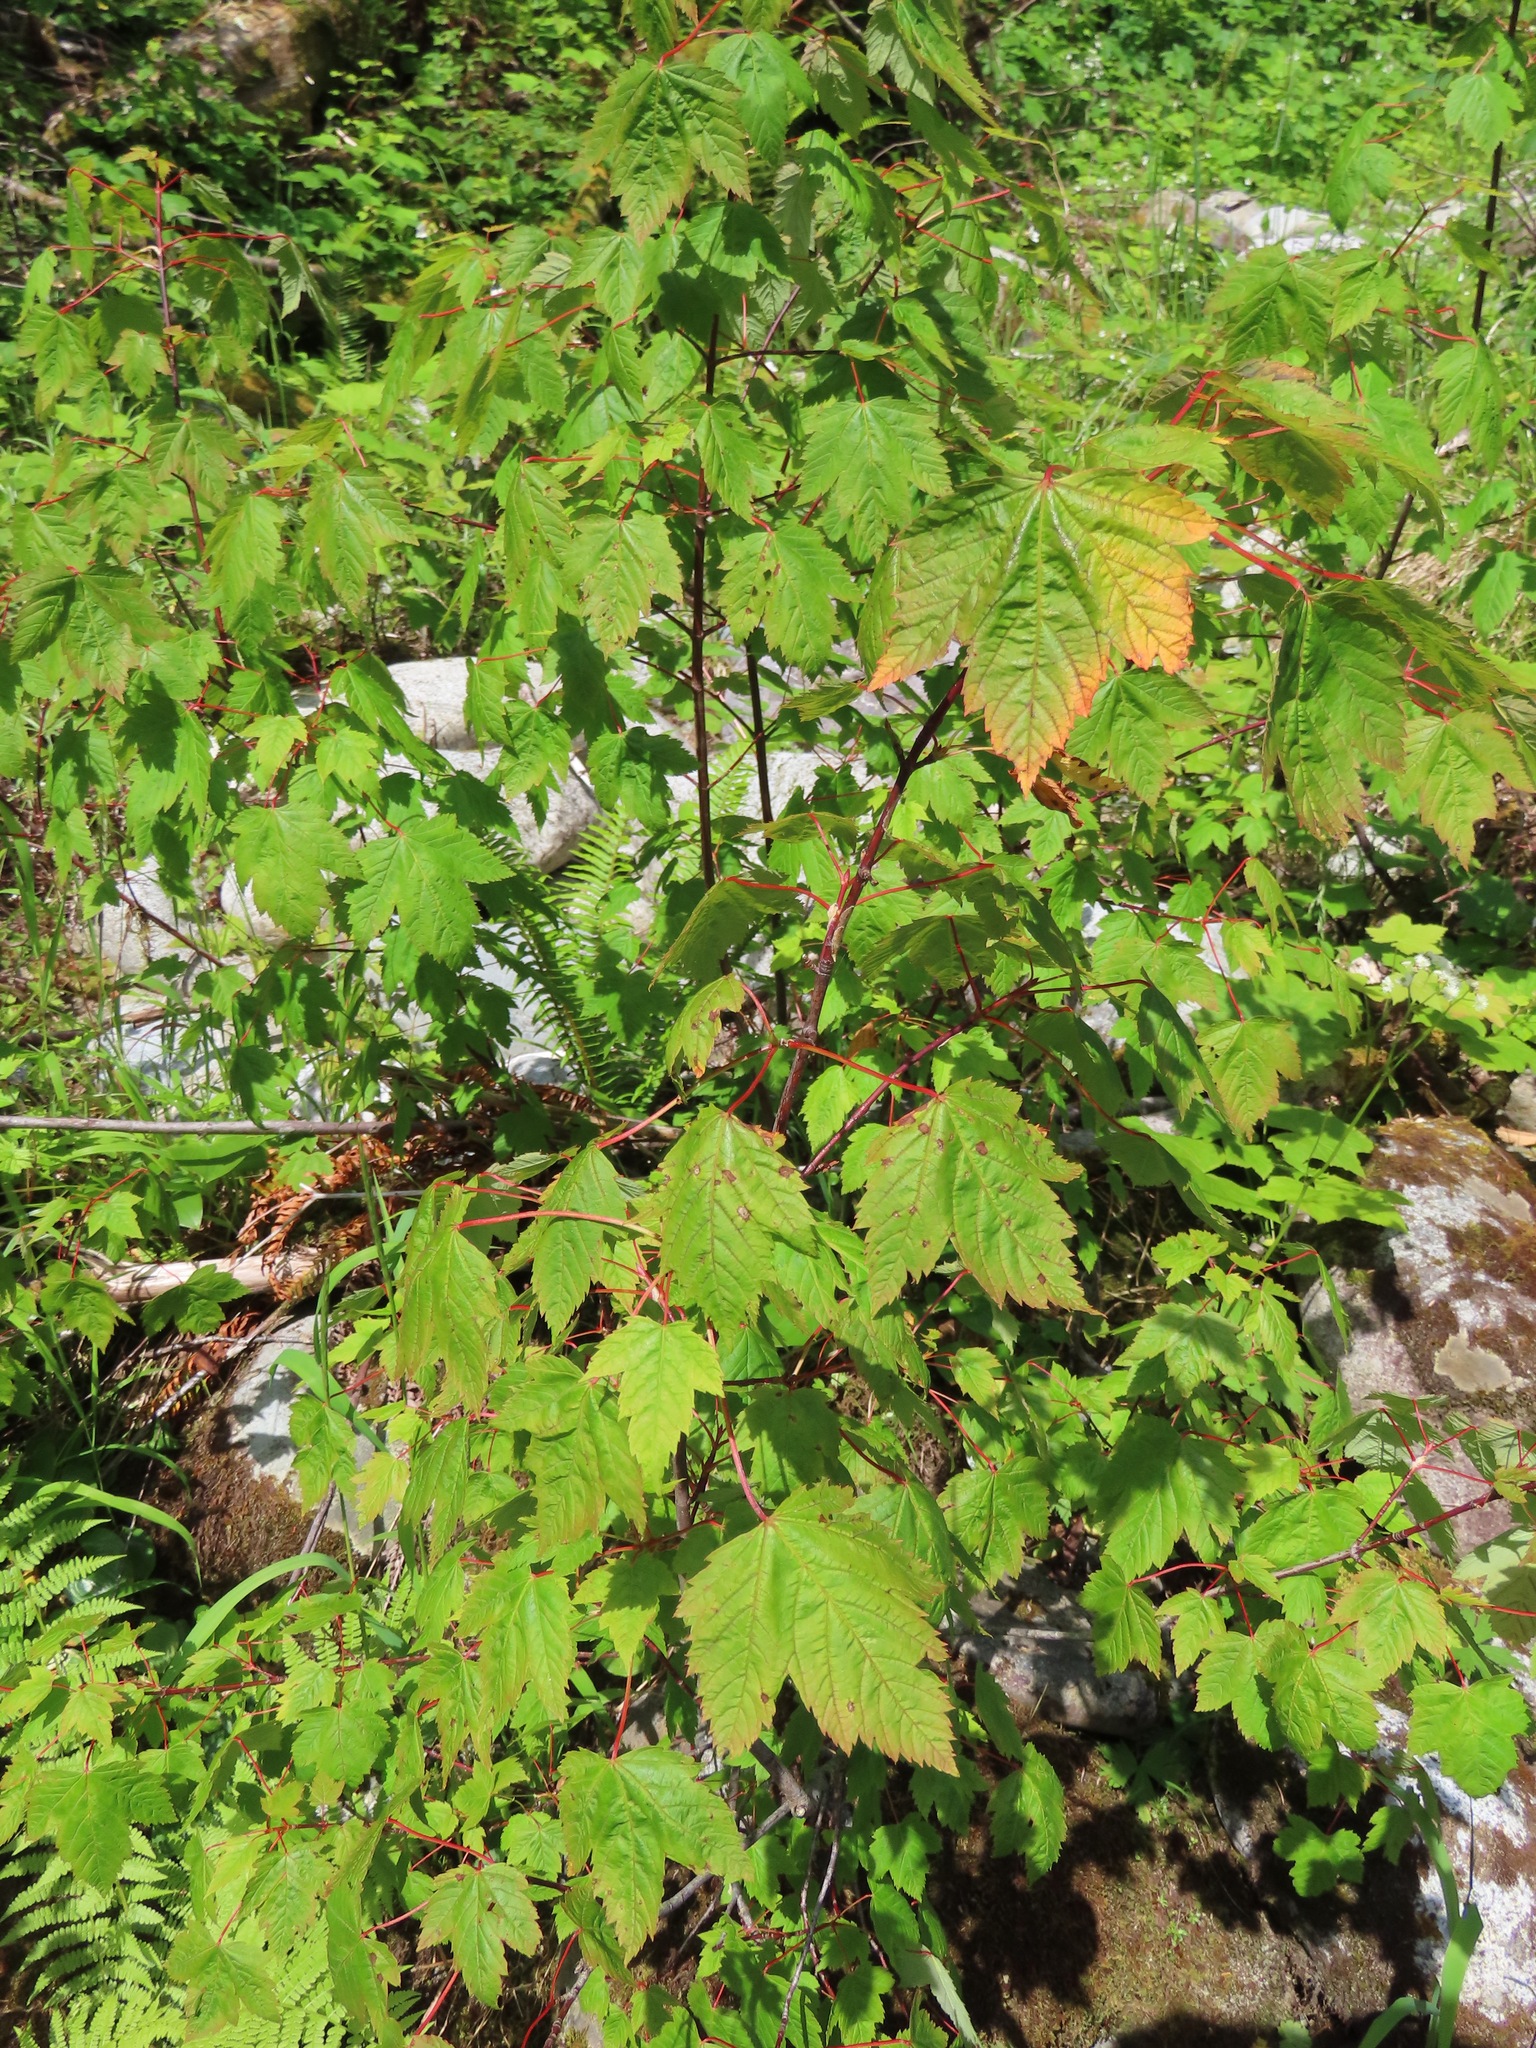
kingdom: Plantae
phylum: Tracheophyta
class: Magnoliopsida
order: Sapindales
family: Sapindaceae
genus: Acer
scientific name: Acer glabrum
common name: Rocky mountain maple
